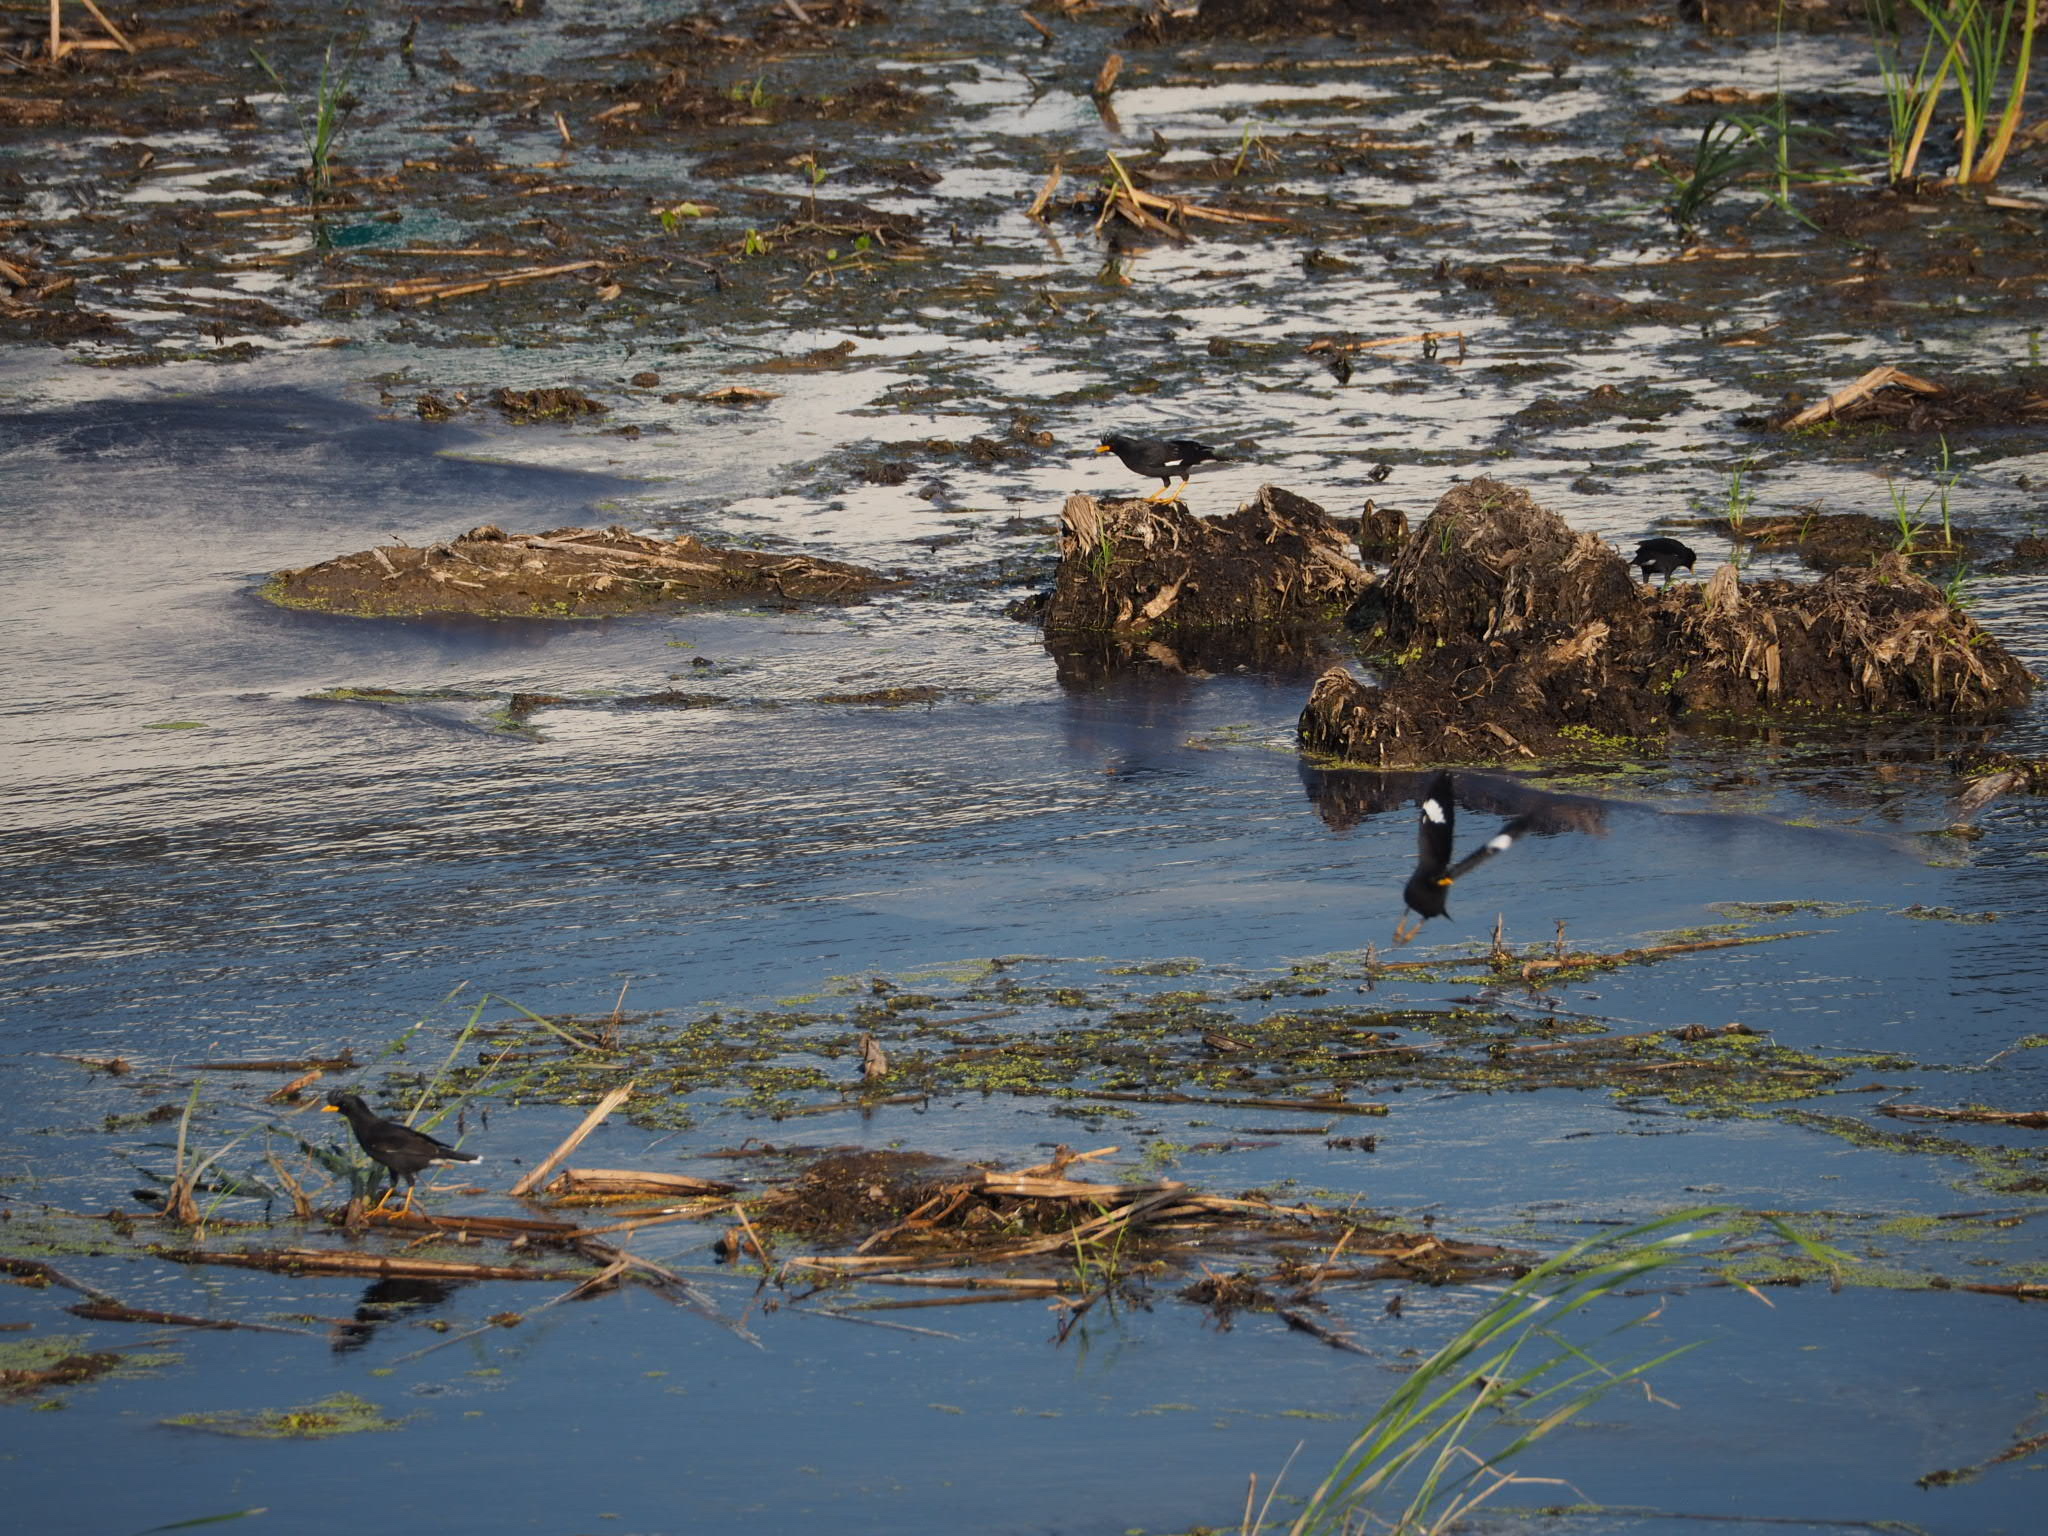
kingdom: Animalia
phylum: Chordata
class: Aves
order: Passeriformes
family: Sturnidae
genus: Acridotheres
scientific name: Acridotheres grandis
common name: Great myna
